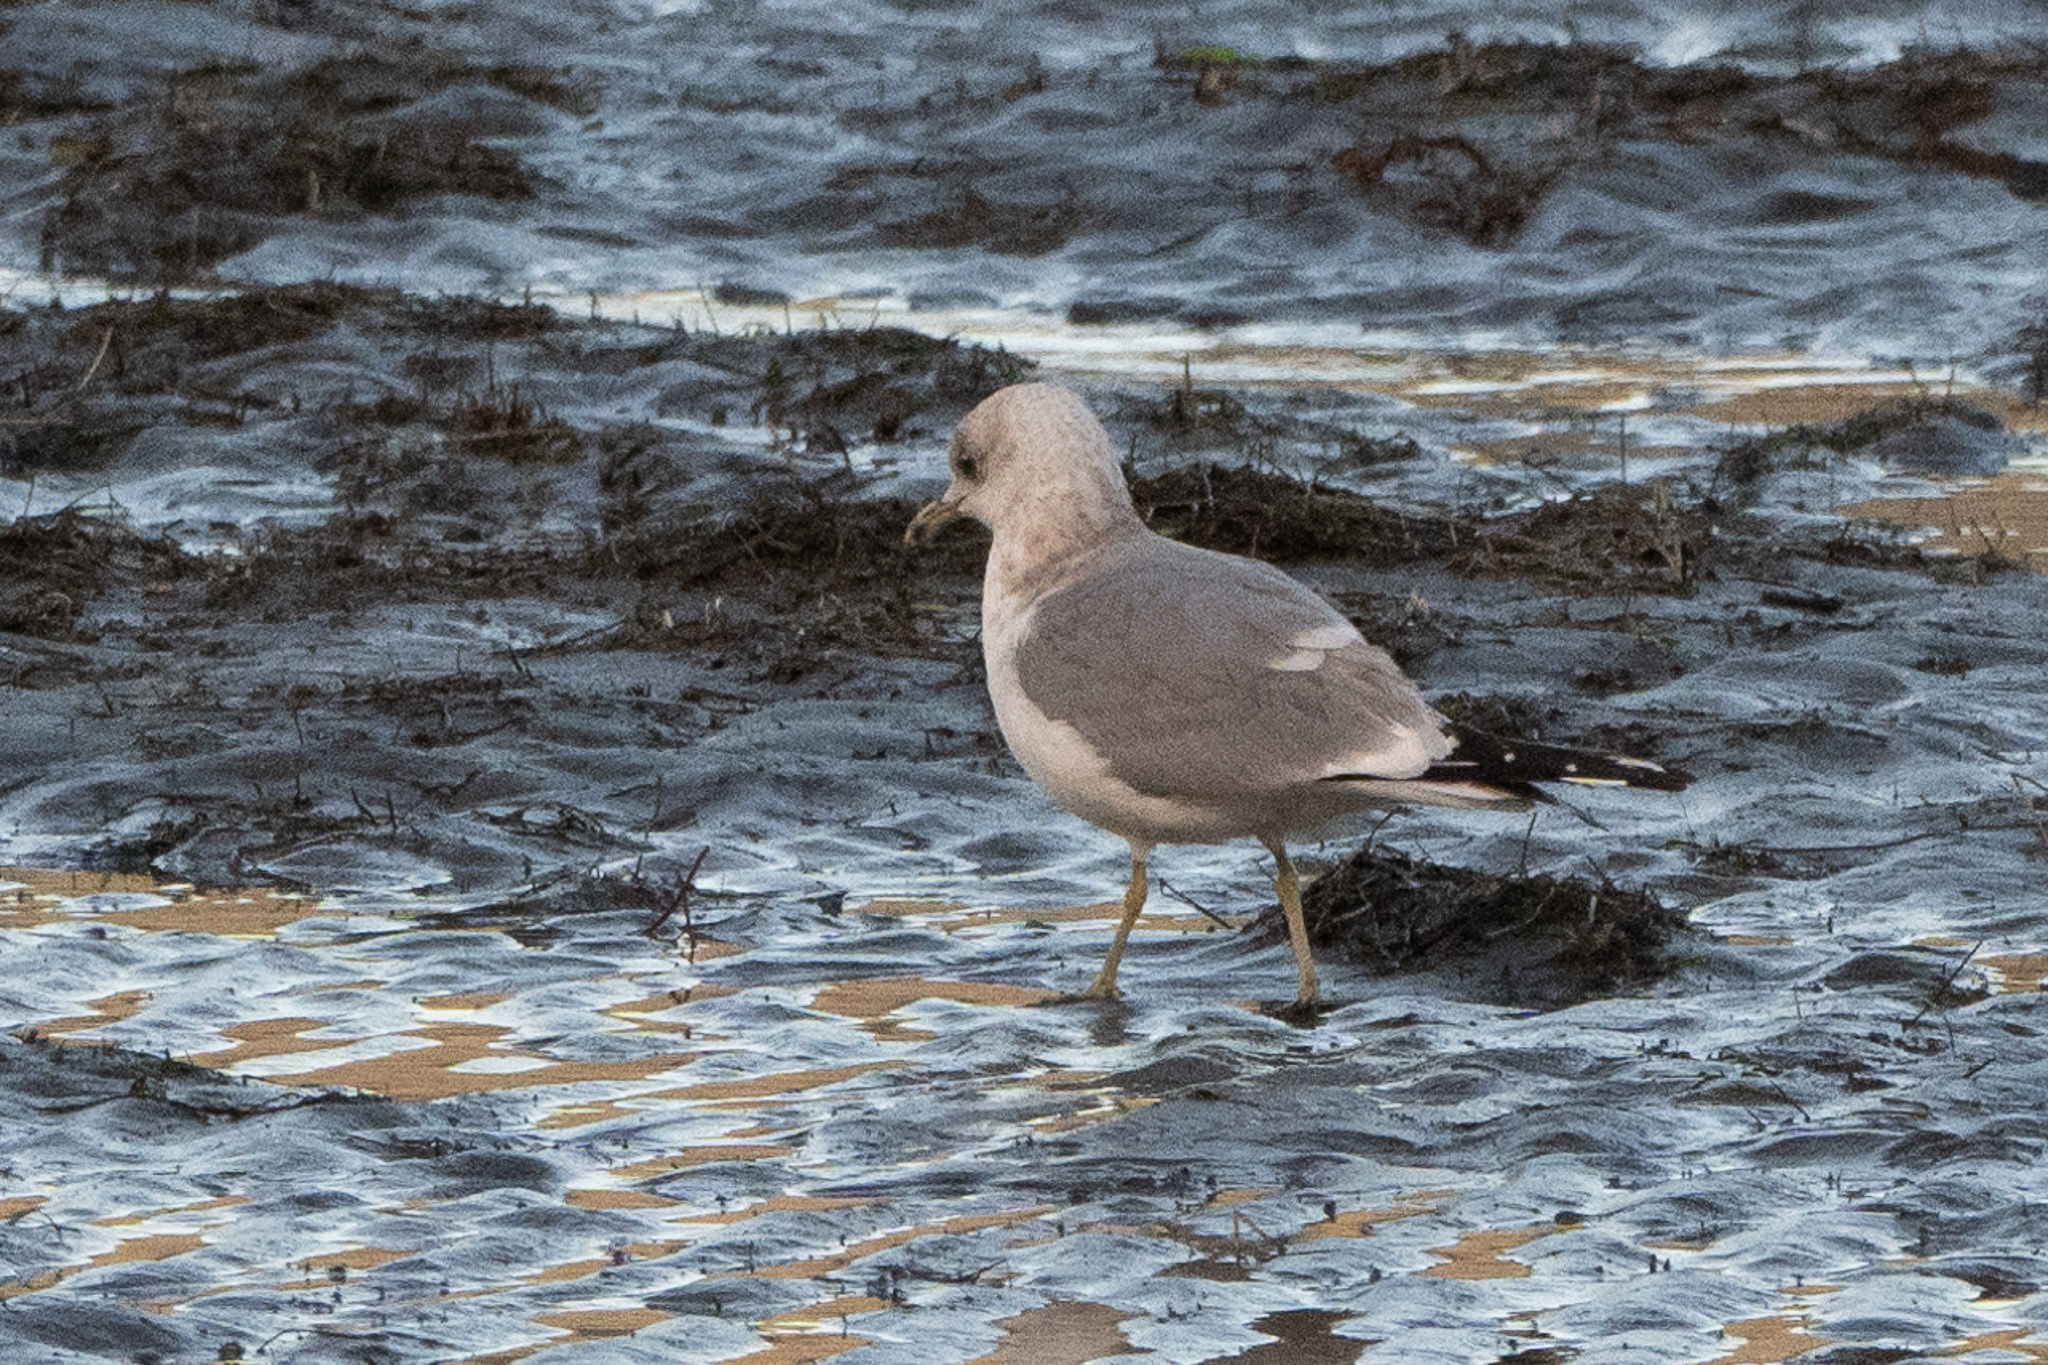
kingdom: Animalia
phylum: Chordata
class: Aves
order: Charadriiformes
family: Laridae
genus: Larus
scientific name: Larus brachyrhynchus
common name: Short-billed gull
